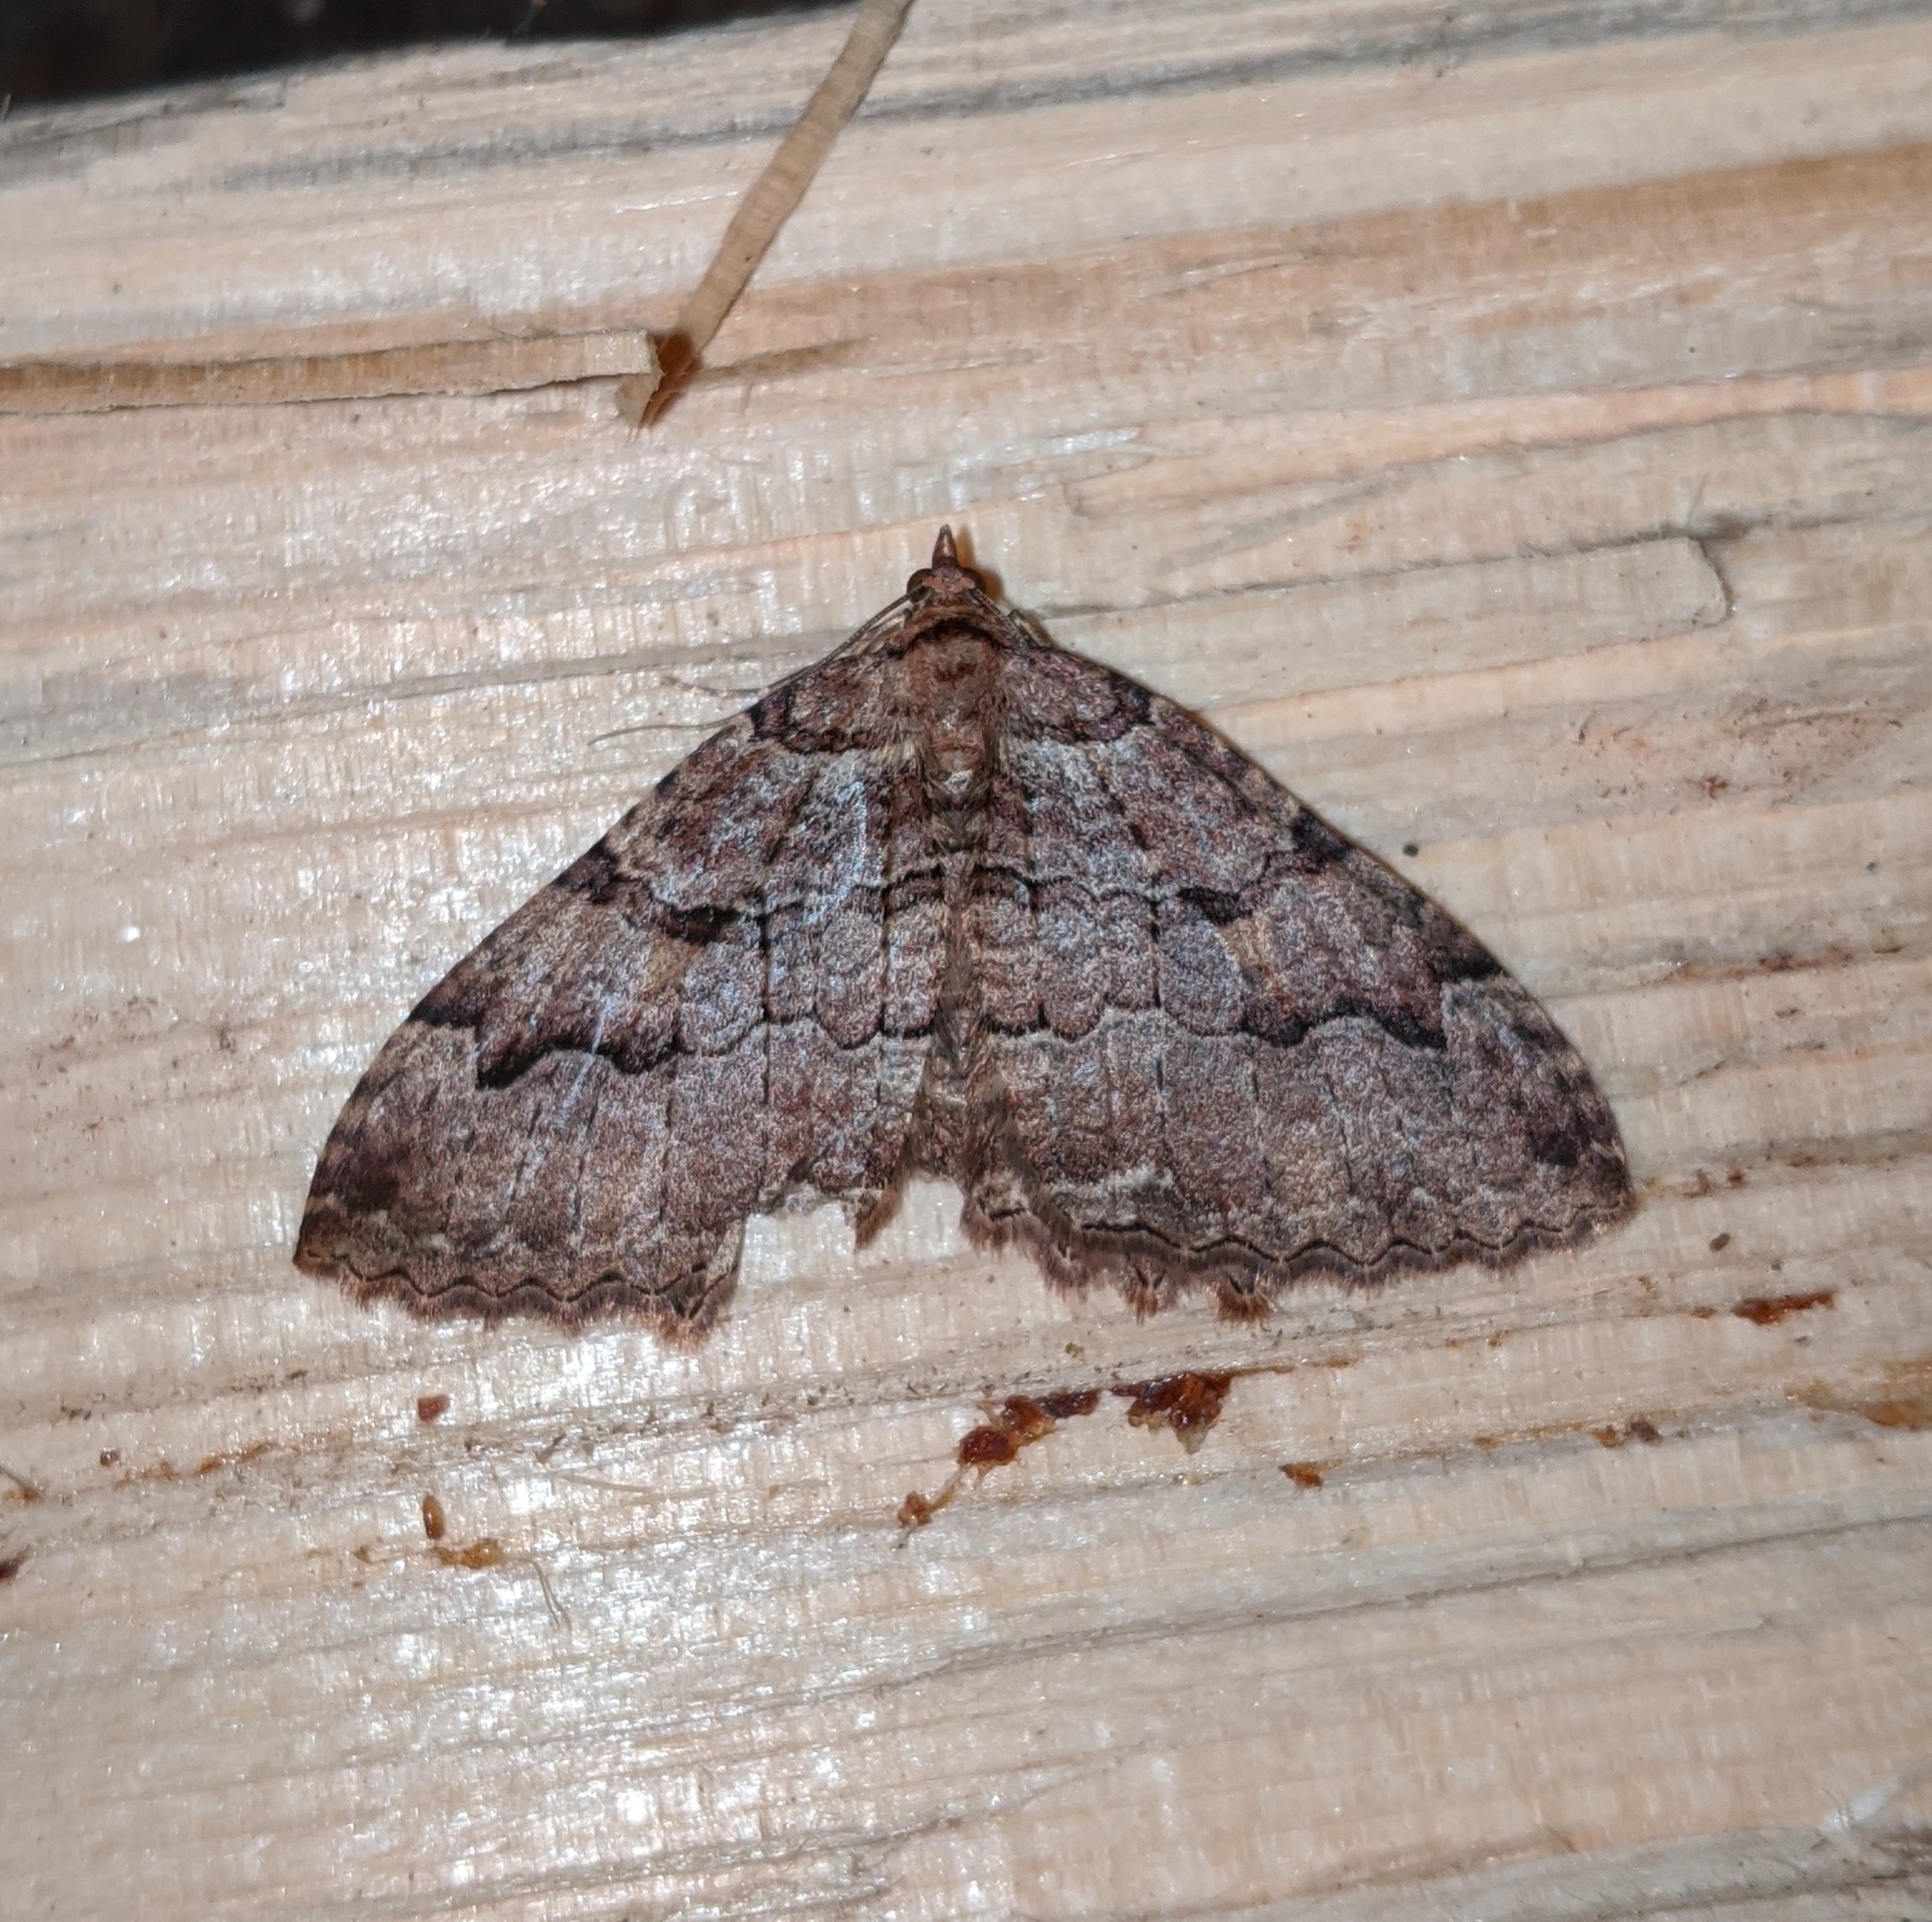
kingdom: Animalia
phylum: Arthropoda
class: Insecta
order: Lepidoptera
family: Geometridae
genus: Triphosa
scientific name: Triphosa haesitata
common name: Tissue moth
